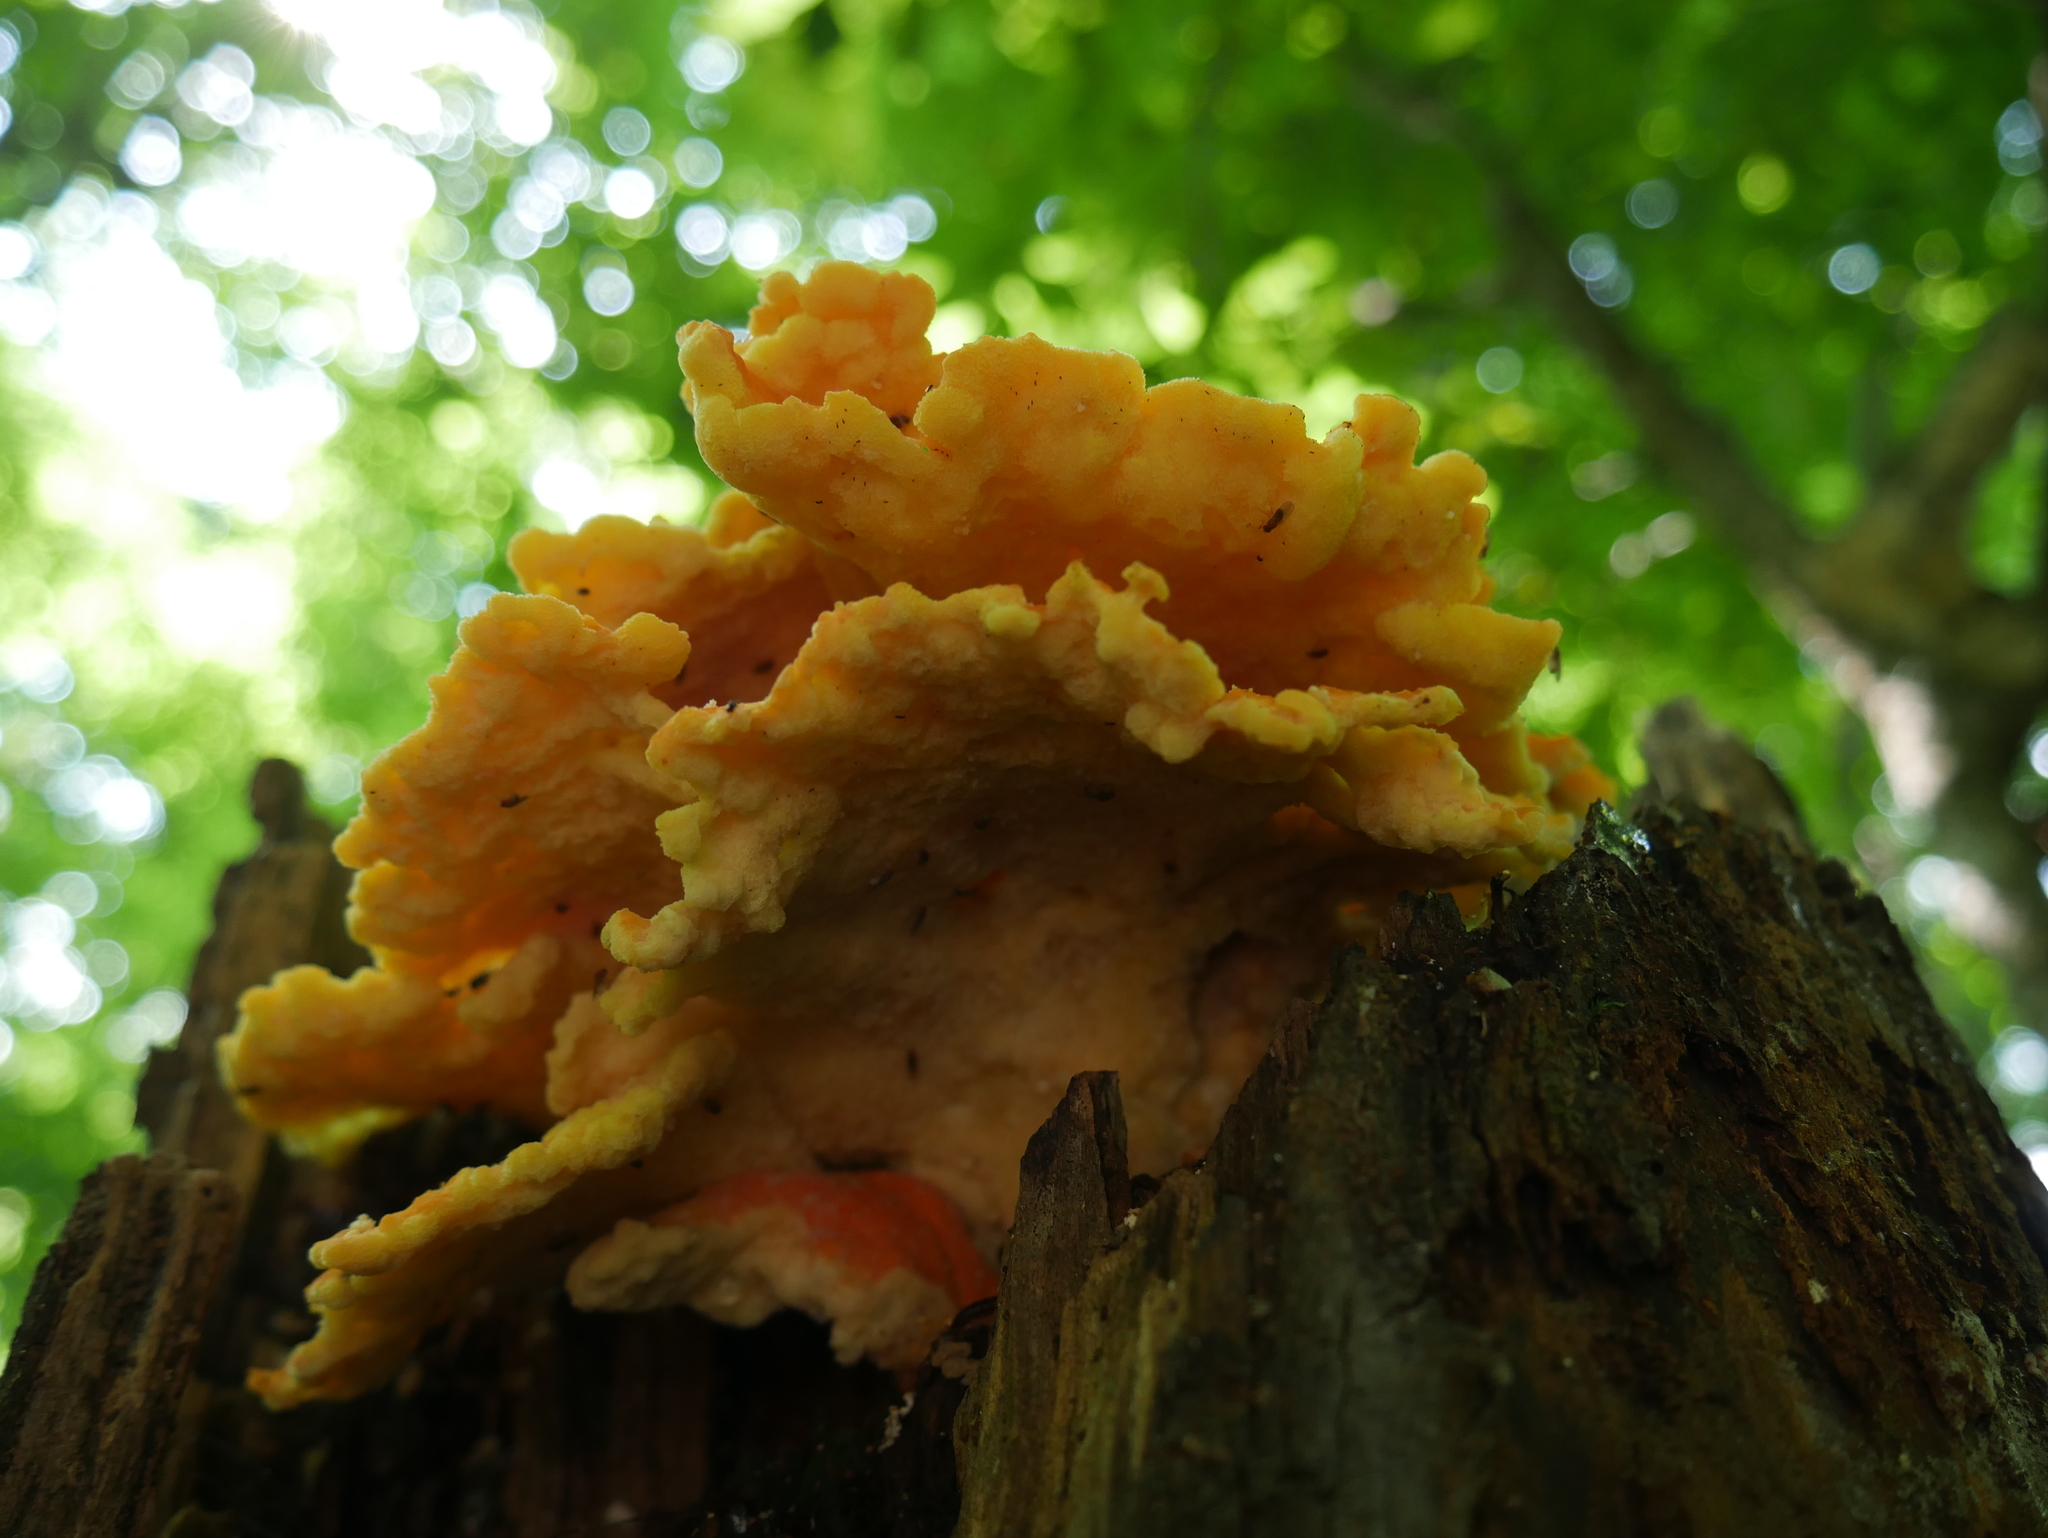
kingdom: Fungi
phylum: Basidiomycota
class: Agaricomycetes
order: Polyporales
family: Laetiporaceae
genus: Laetiporus
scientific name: Laetiporus sulphureus
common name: Chicken of the woods
